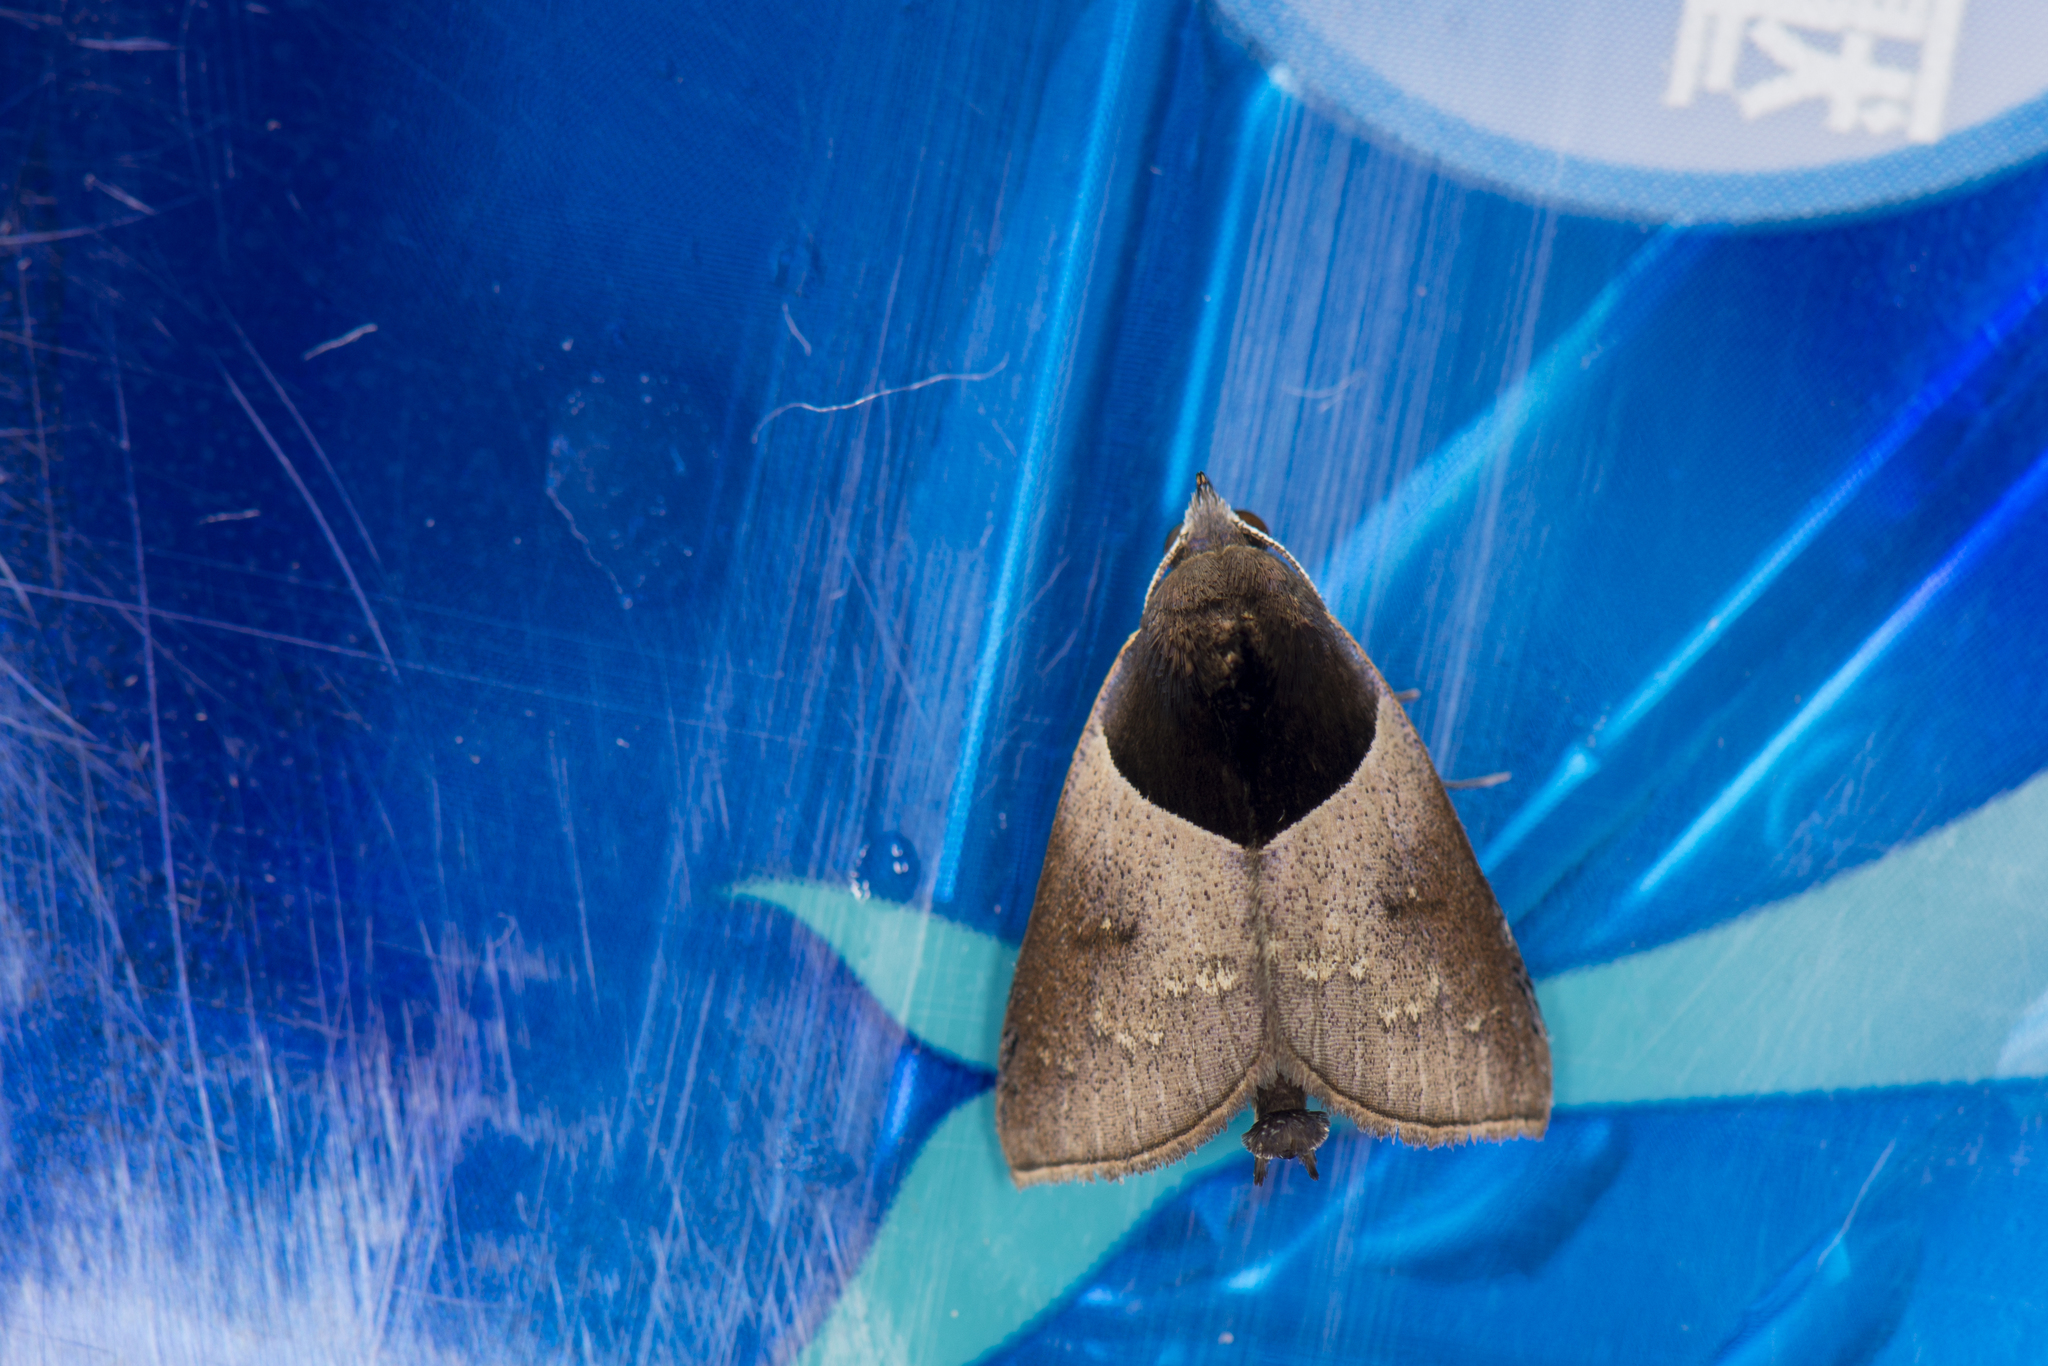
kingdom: Animalia
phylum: Arthropoda
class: Insecta
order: Lepidoptera
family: Erebidae
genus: Acidon
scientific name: Acidon nigrobasis
